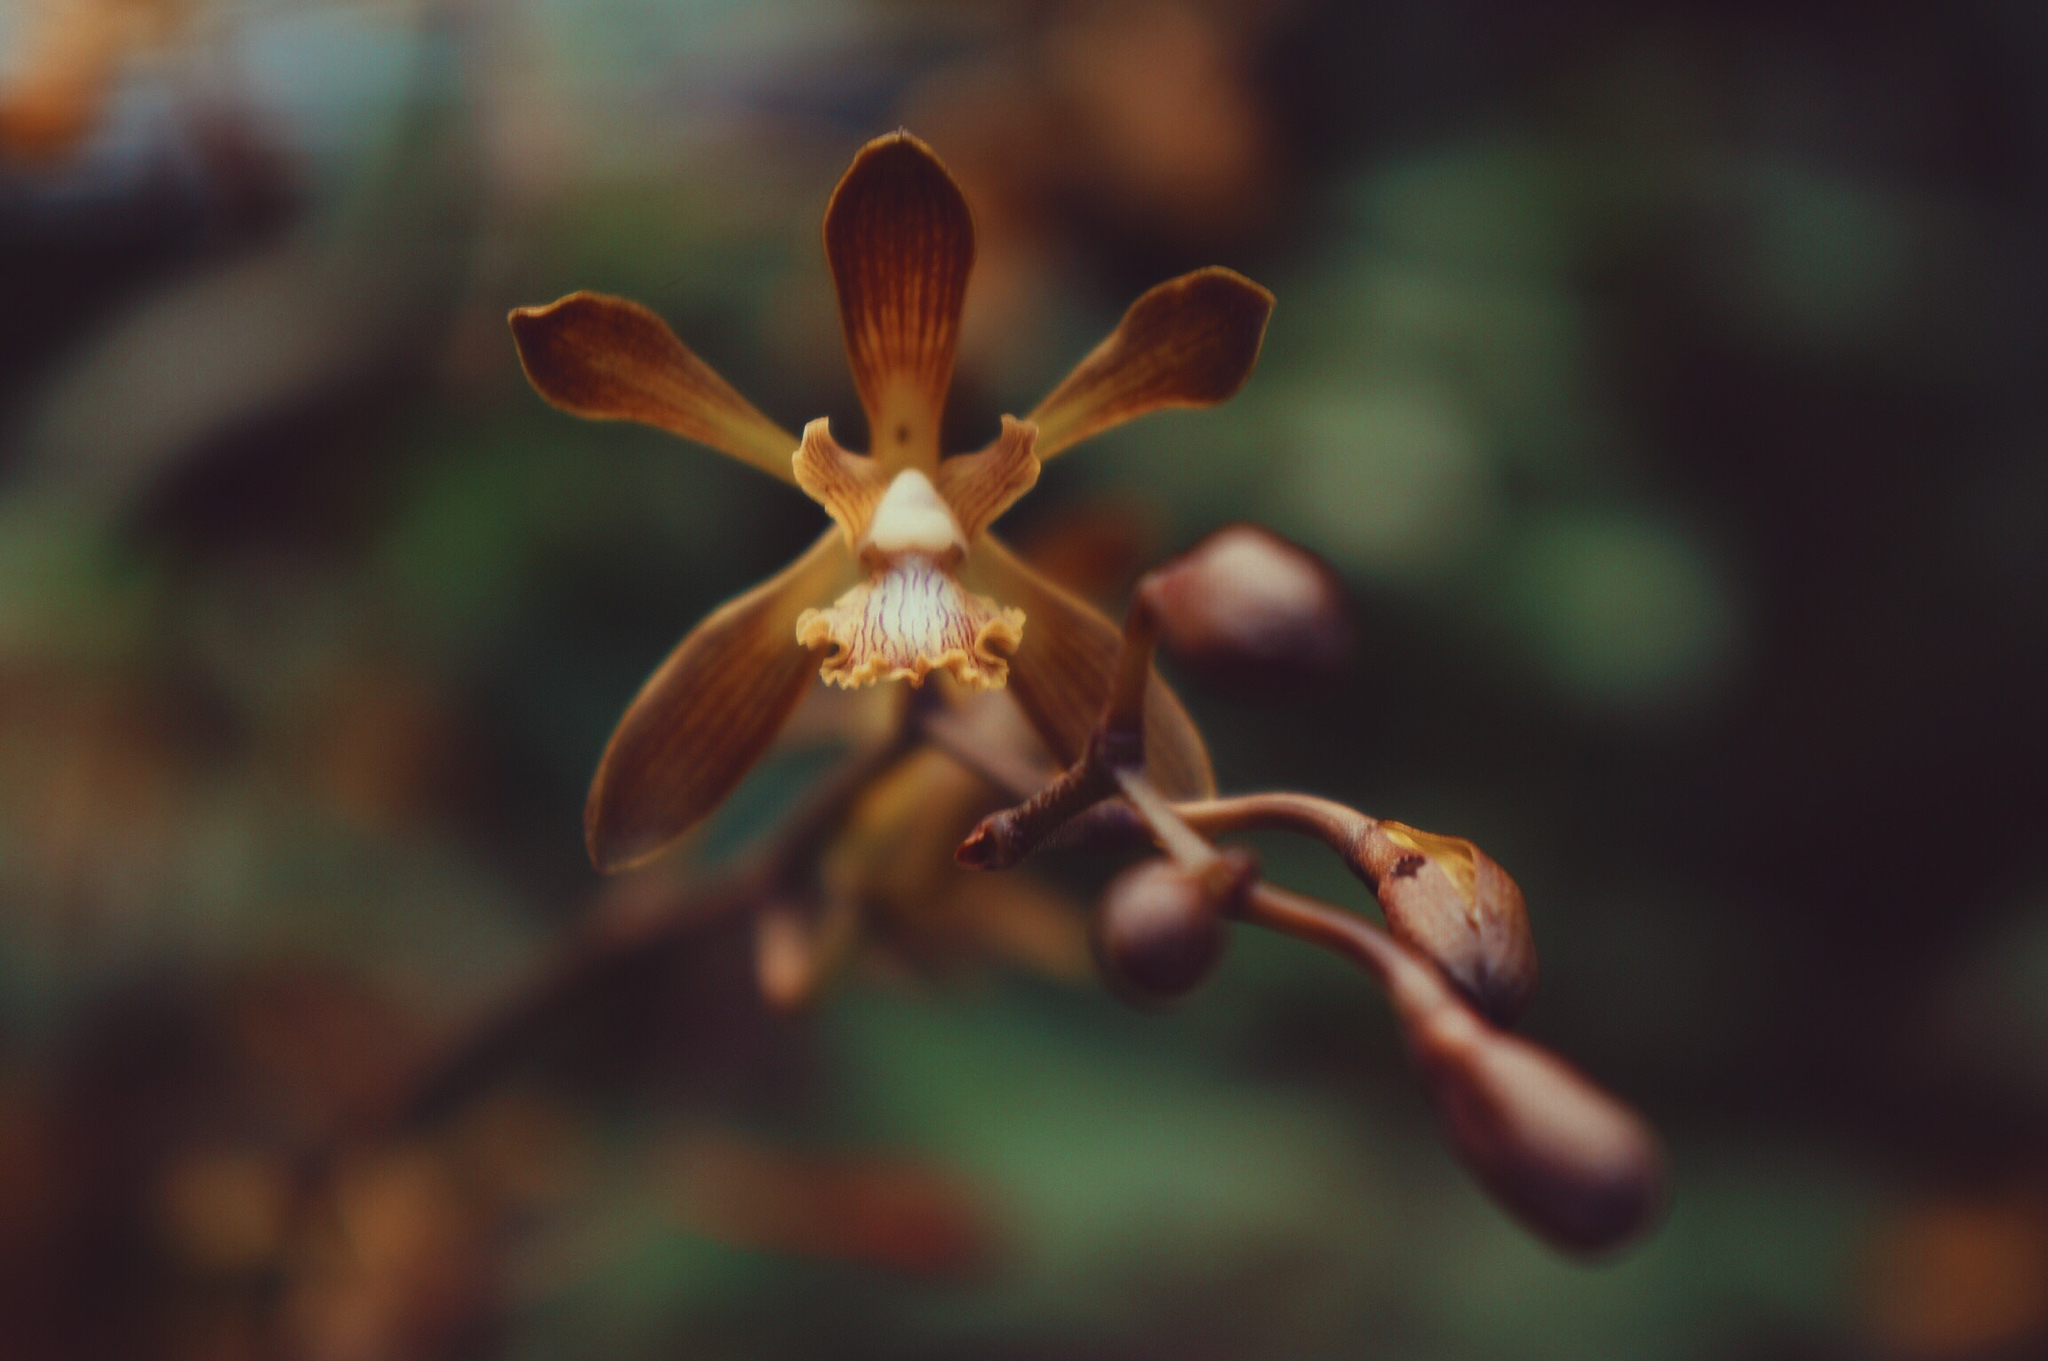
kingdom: Plantae
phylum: Tracheophyta
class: Liliopsida
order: Asparagales
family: Orchidaceae
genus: Encyclia
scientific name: Encyclia parviflora
